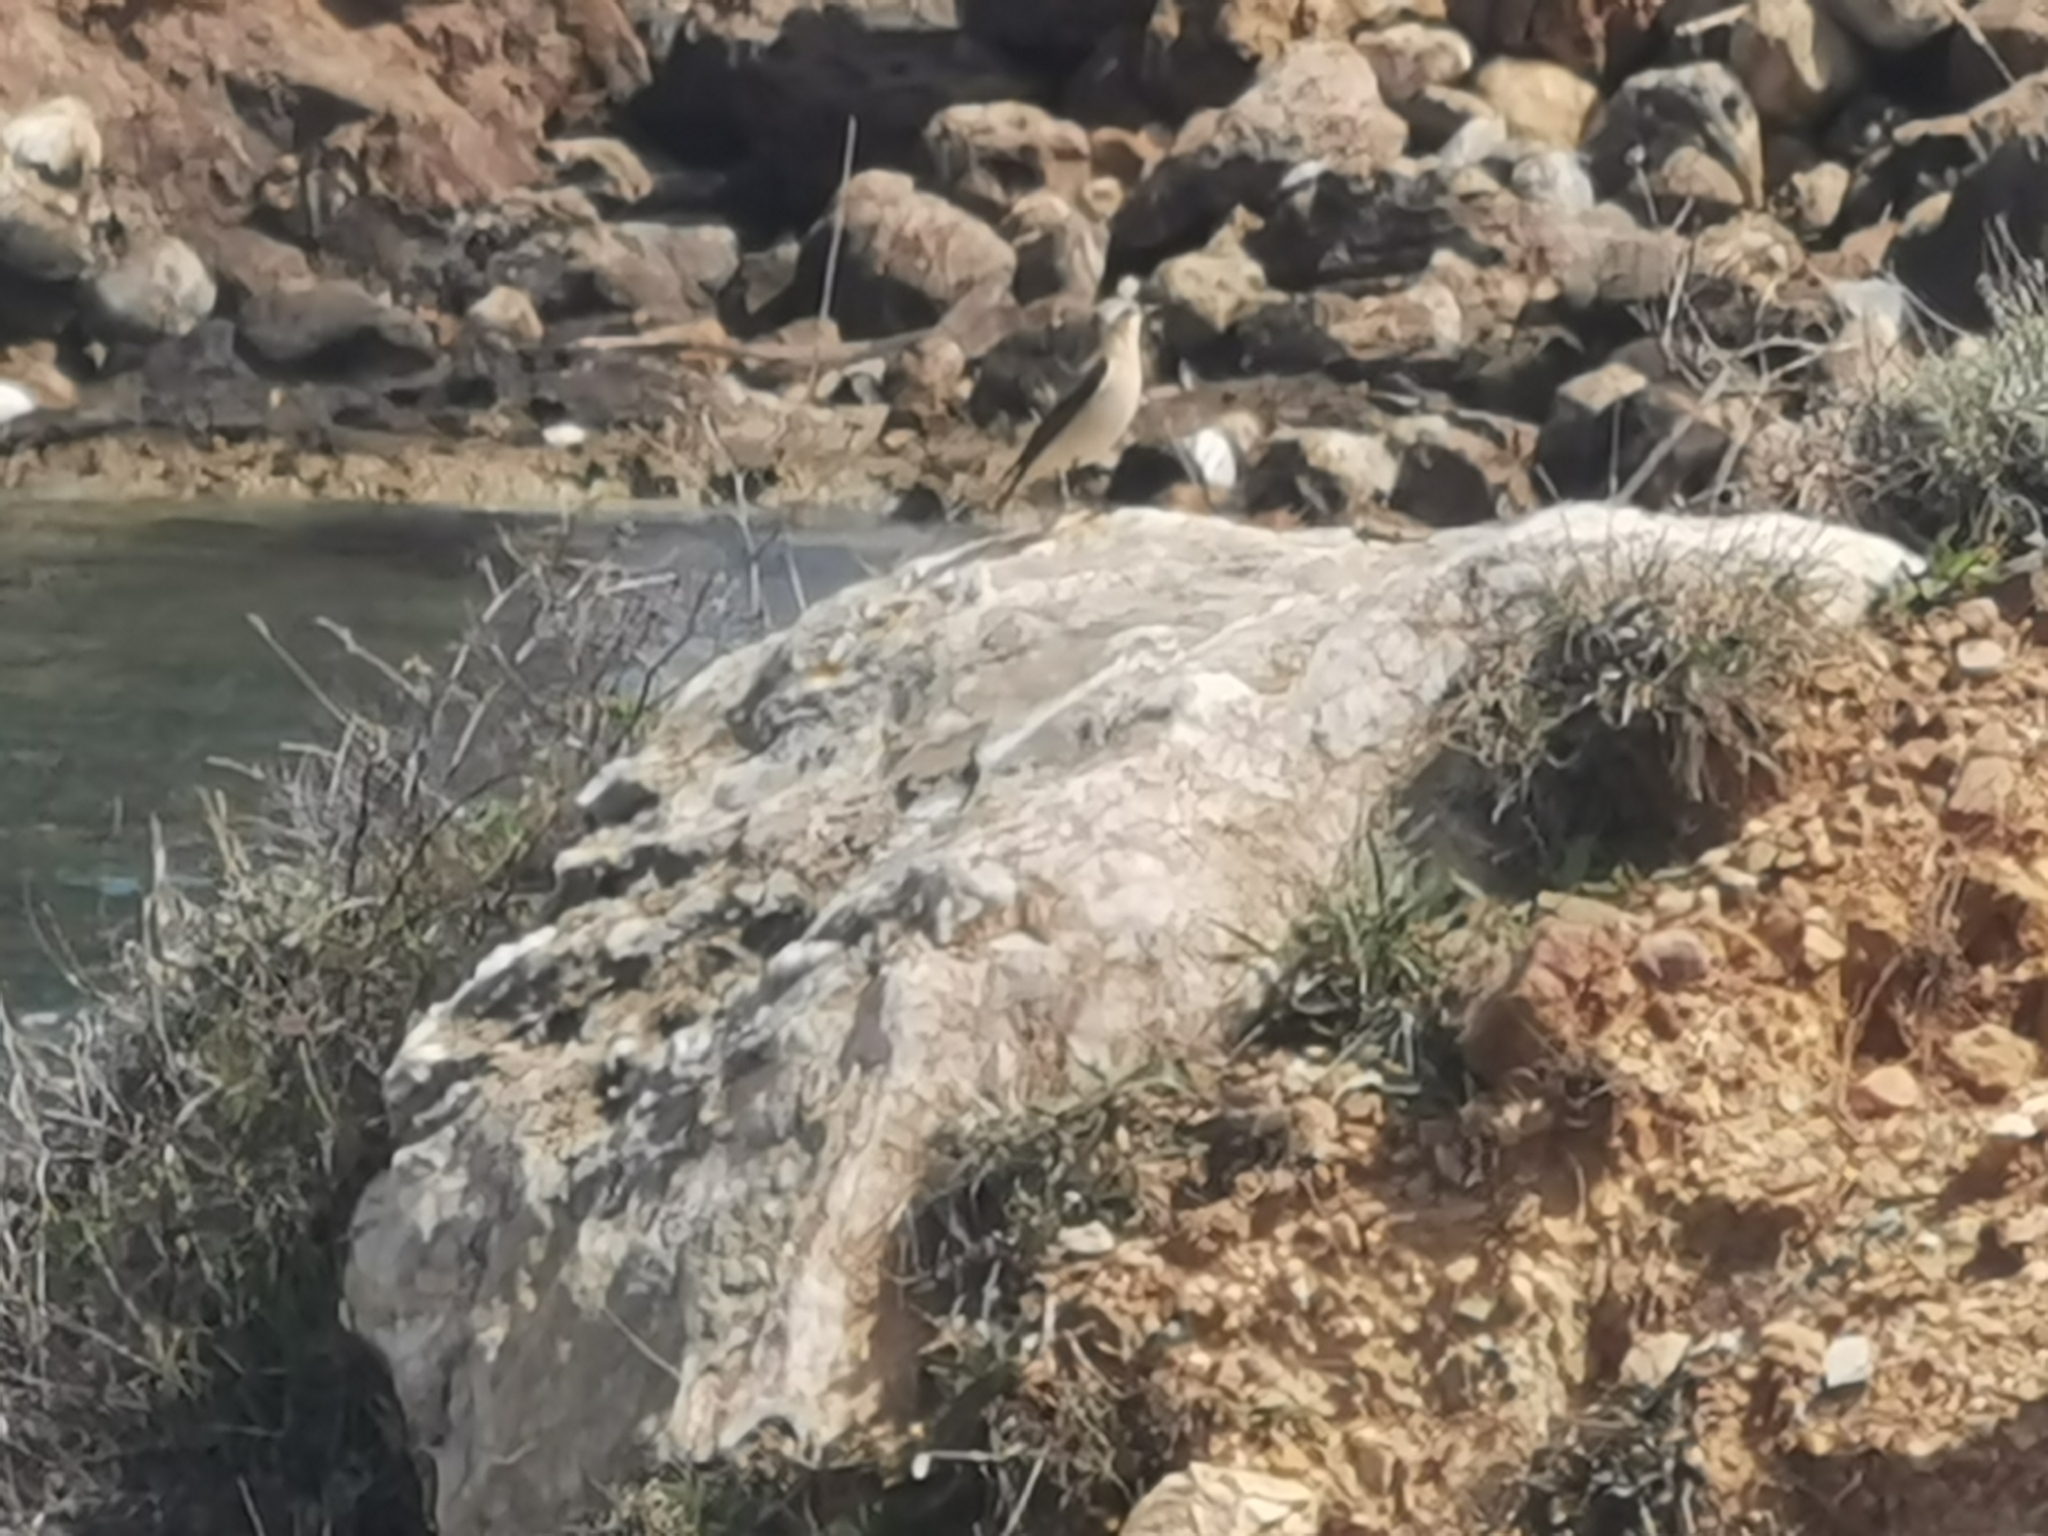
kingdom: Animalia
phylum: Chordata
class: Aves
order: Passeriformes
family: Muscicapidae
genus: Oenanthe
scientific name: Oenanthe oenanthe
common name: Northern wheatear
